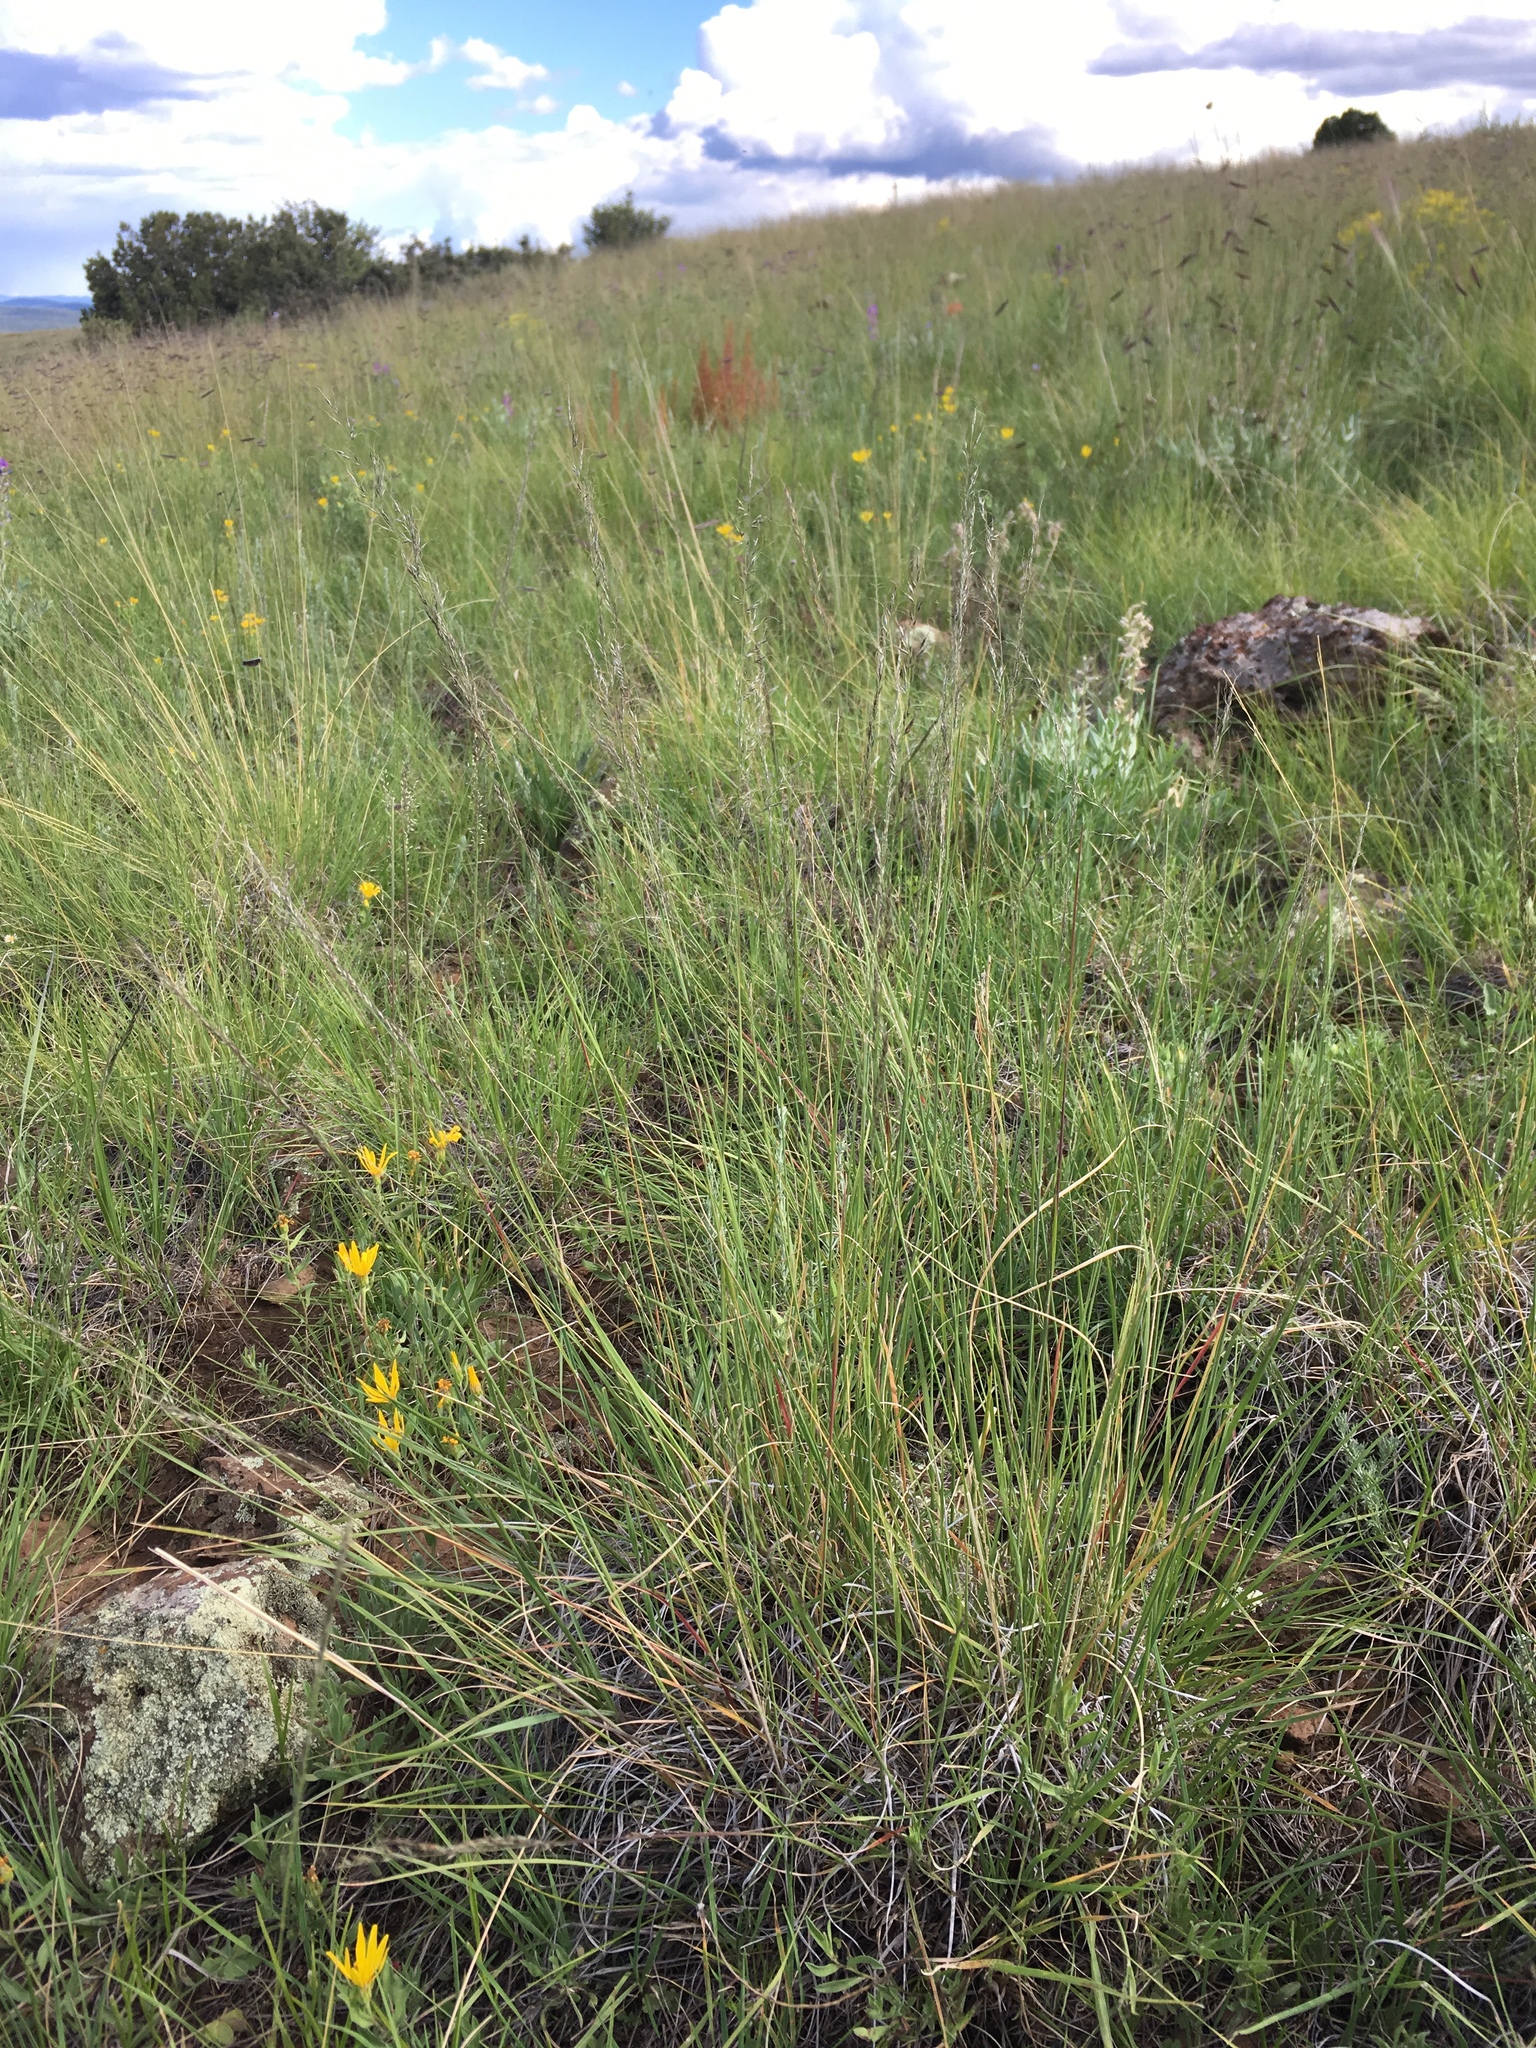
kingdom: Plantae
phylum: Tracheophyta
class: Liliopsida
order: Poales
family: Poaceae
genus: Muhlenbergia
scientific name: Muhlenbergia montana
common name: Mountain muhly
